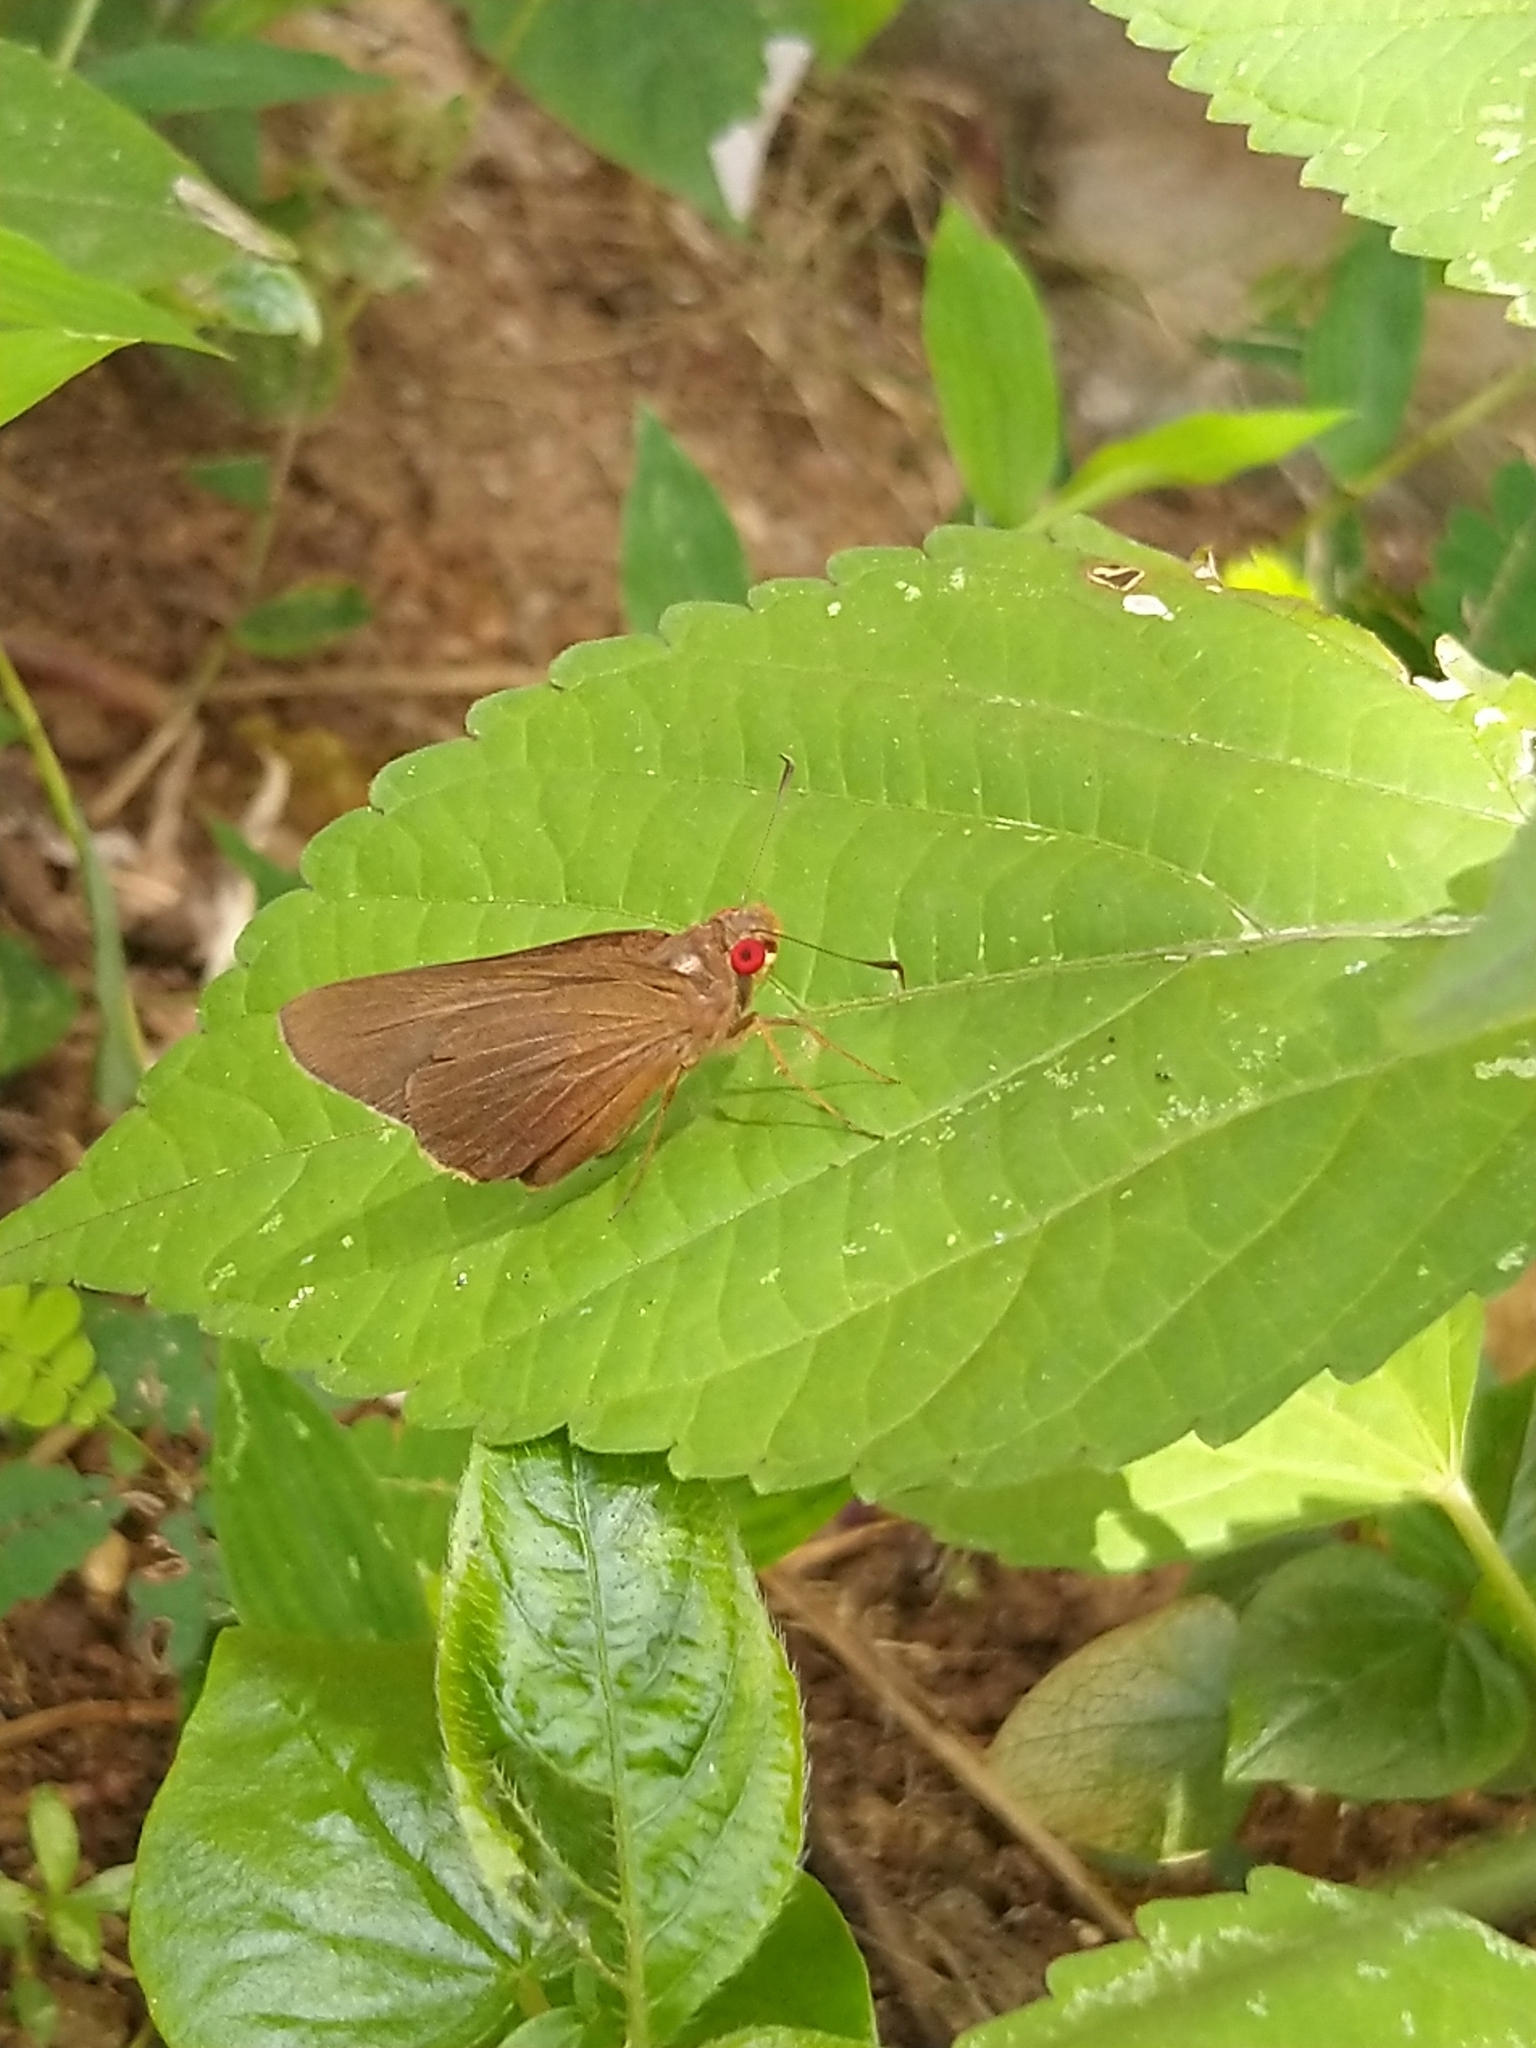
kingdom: Animalia
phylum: Arthropoda
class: Insecta
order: Lepidoptera
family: Hesperiidae
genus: Matapa
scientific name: Matapa aria
